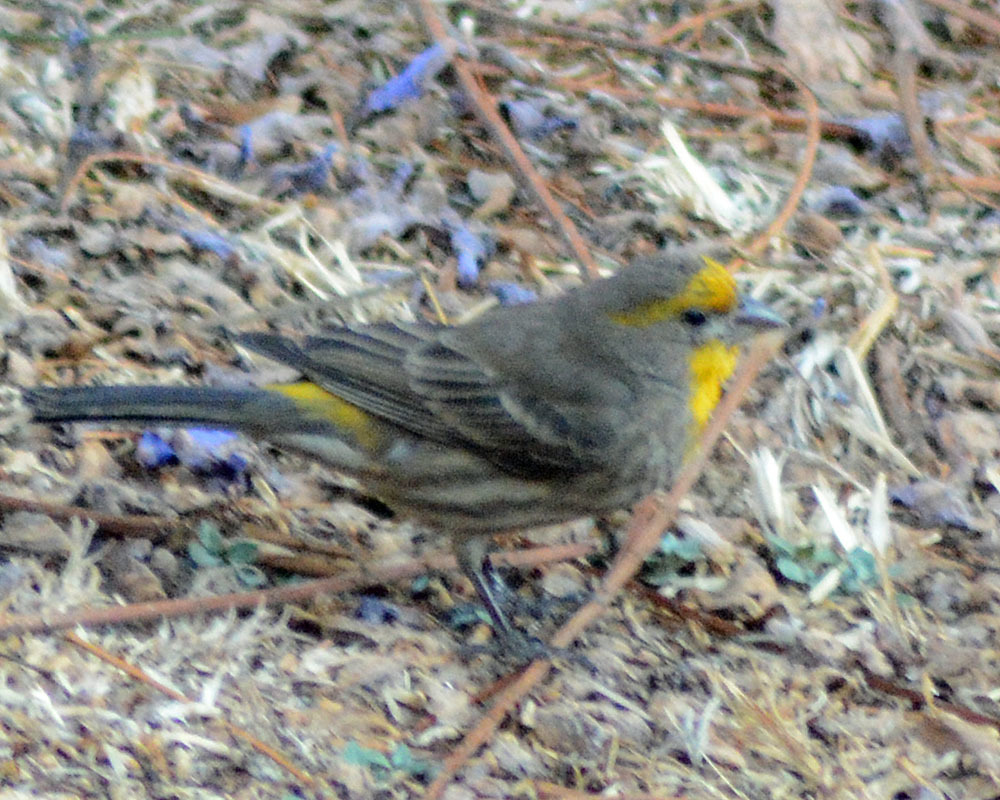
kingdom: Animalia
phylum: Chordata
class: Aves
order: Passeriformes
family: Fringillidae
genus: Haemorhous
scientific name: Haemorhous mexicanus
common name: House finch
